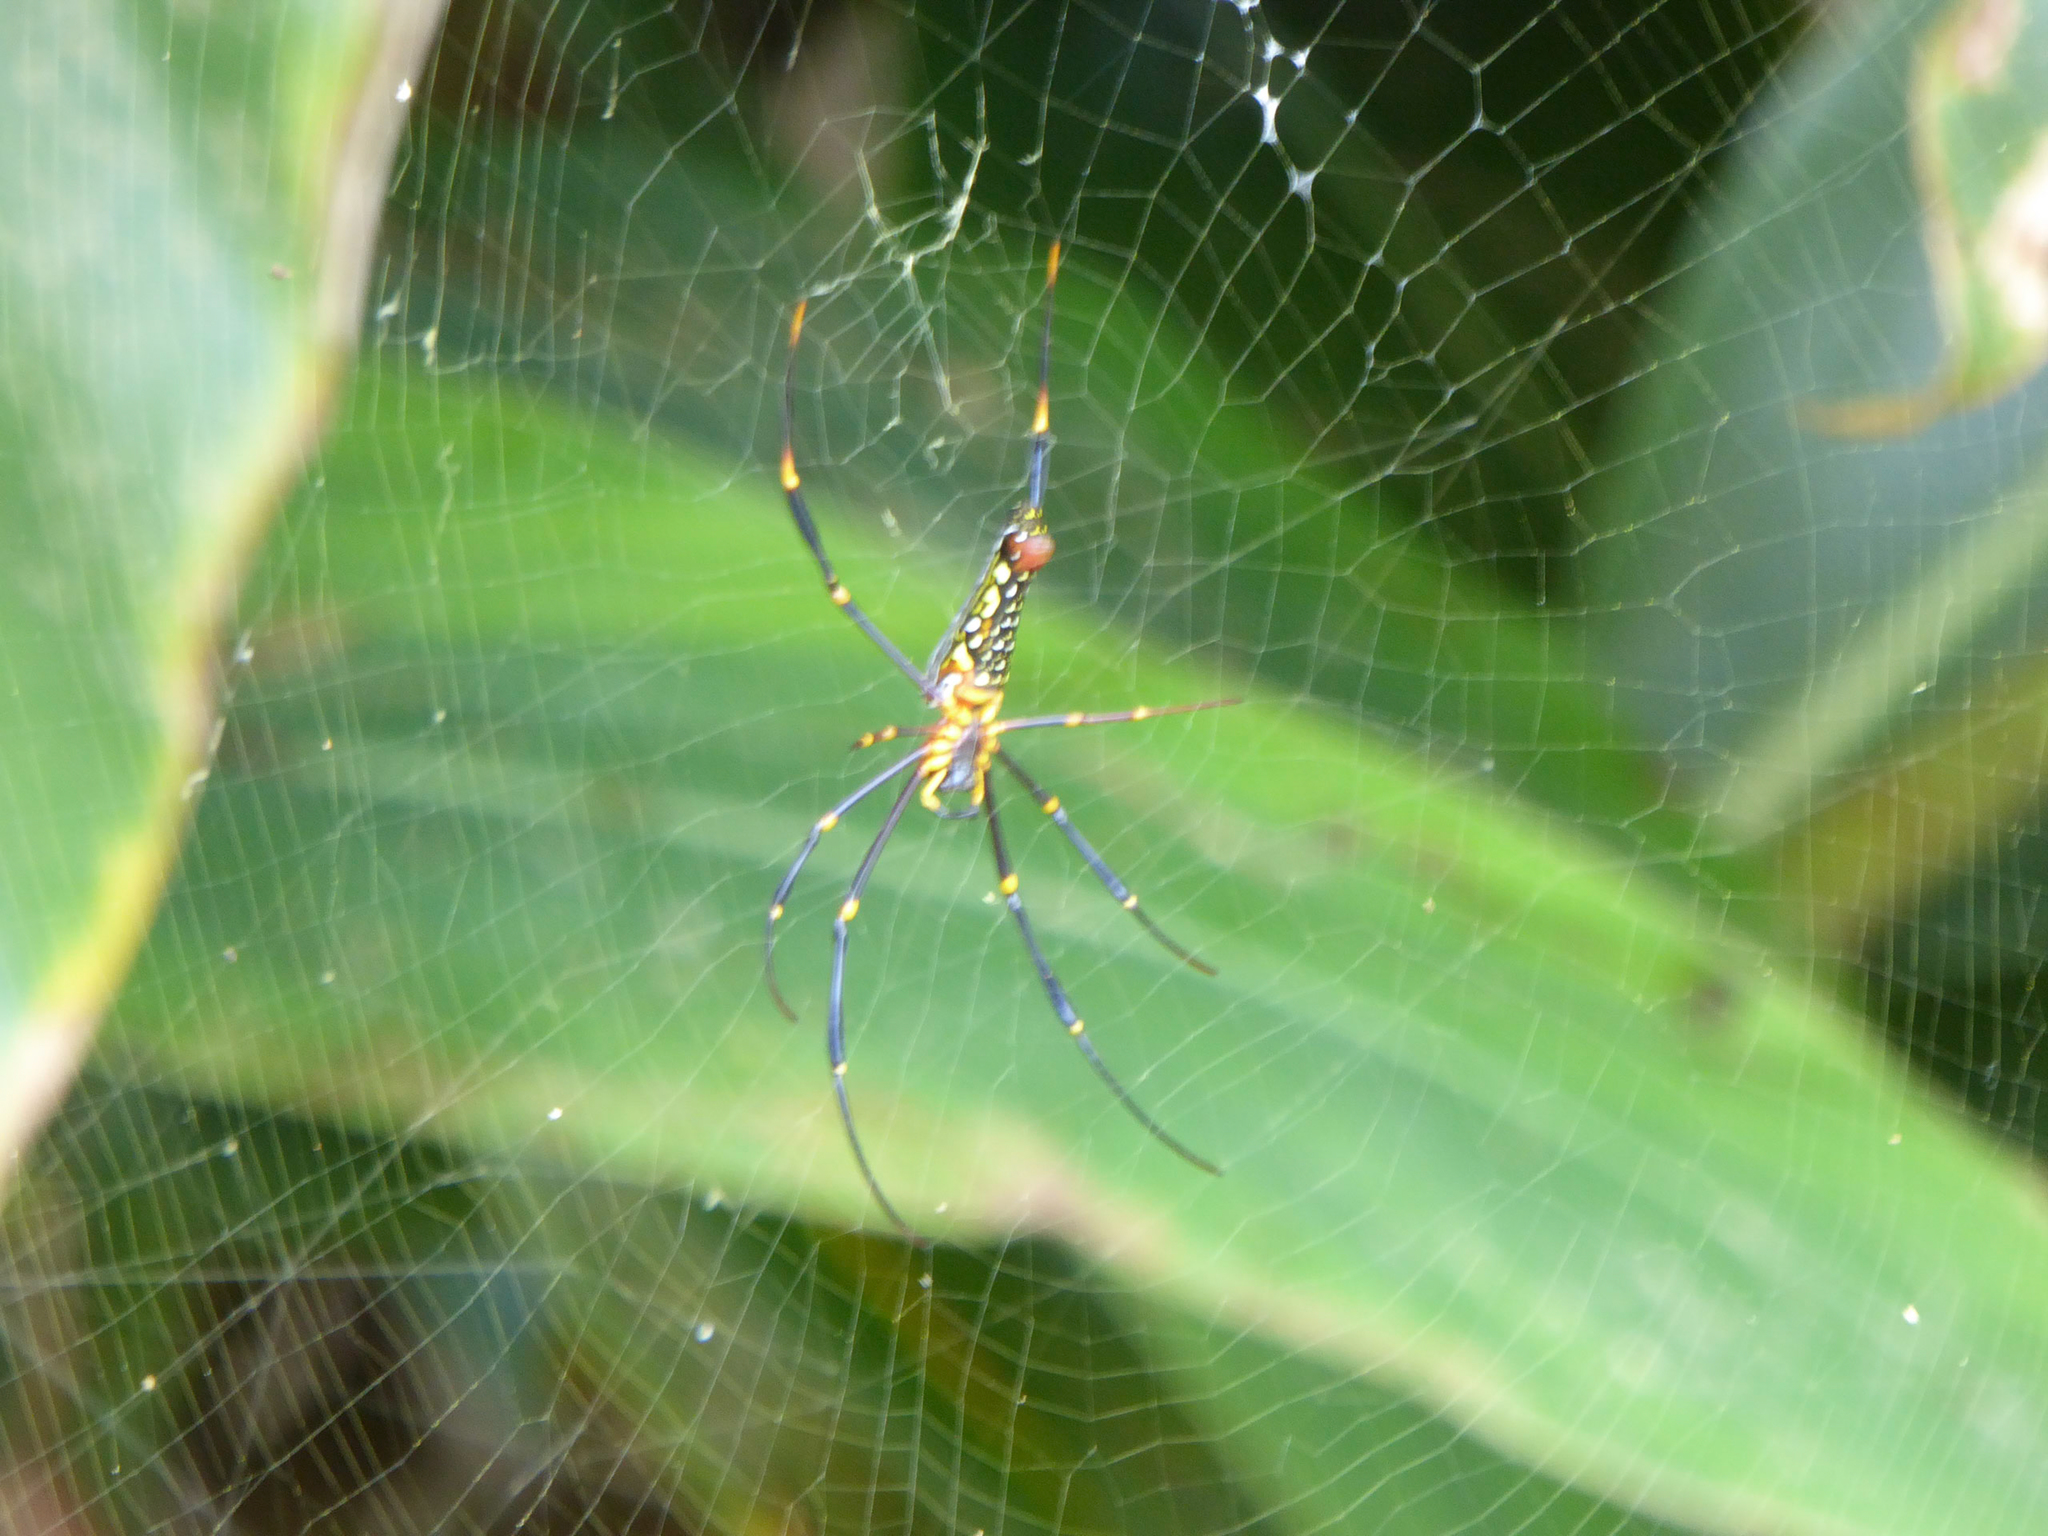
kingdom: Animalia
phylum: Arthropoda
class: Arachnida
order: Araneae
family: Araneidae
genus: Nephila
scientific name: Nephila pilipes
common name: Giant golden orb weaver
